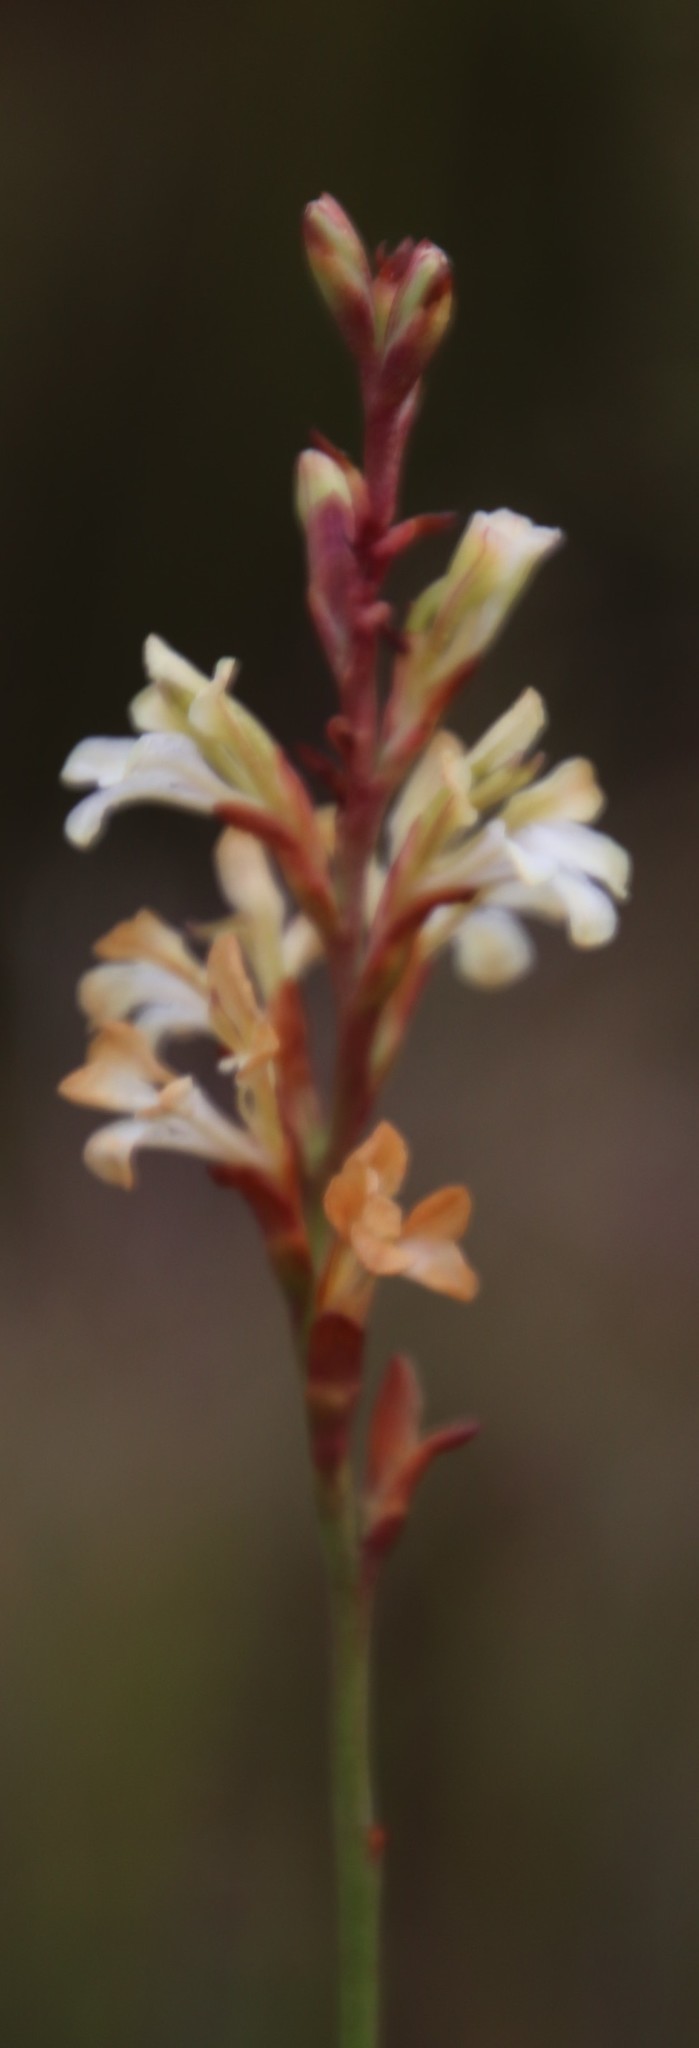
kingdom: Plantae
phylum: Tracheophyta
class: Liliopsida
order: Asparagales
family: Iridaceae
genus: Tritoniopsis
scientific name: Tritoniopsis unguicularis
